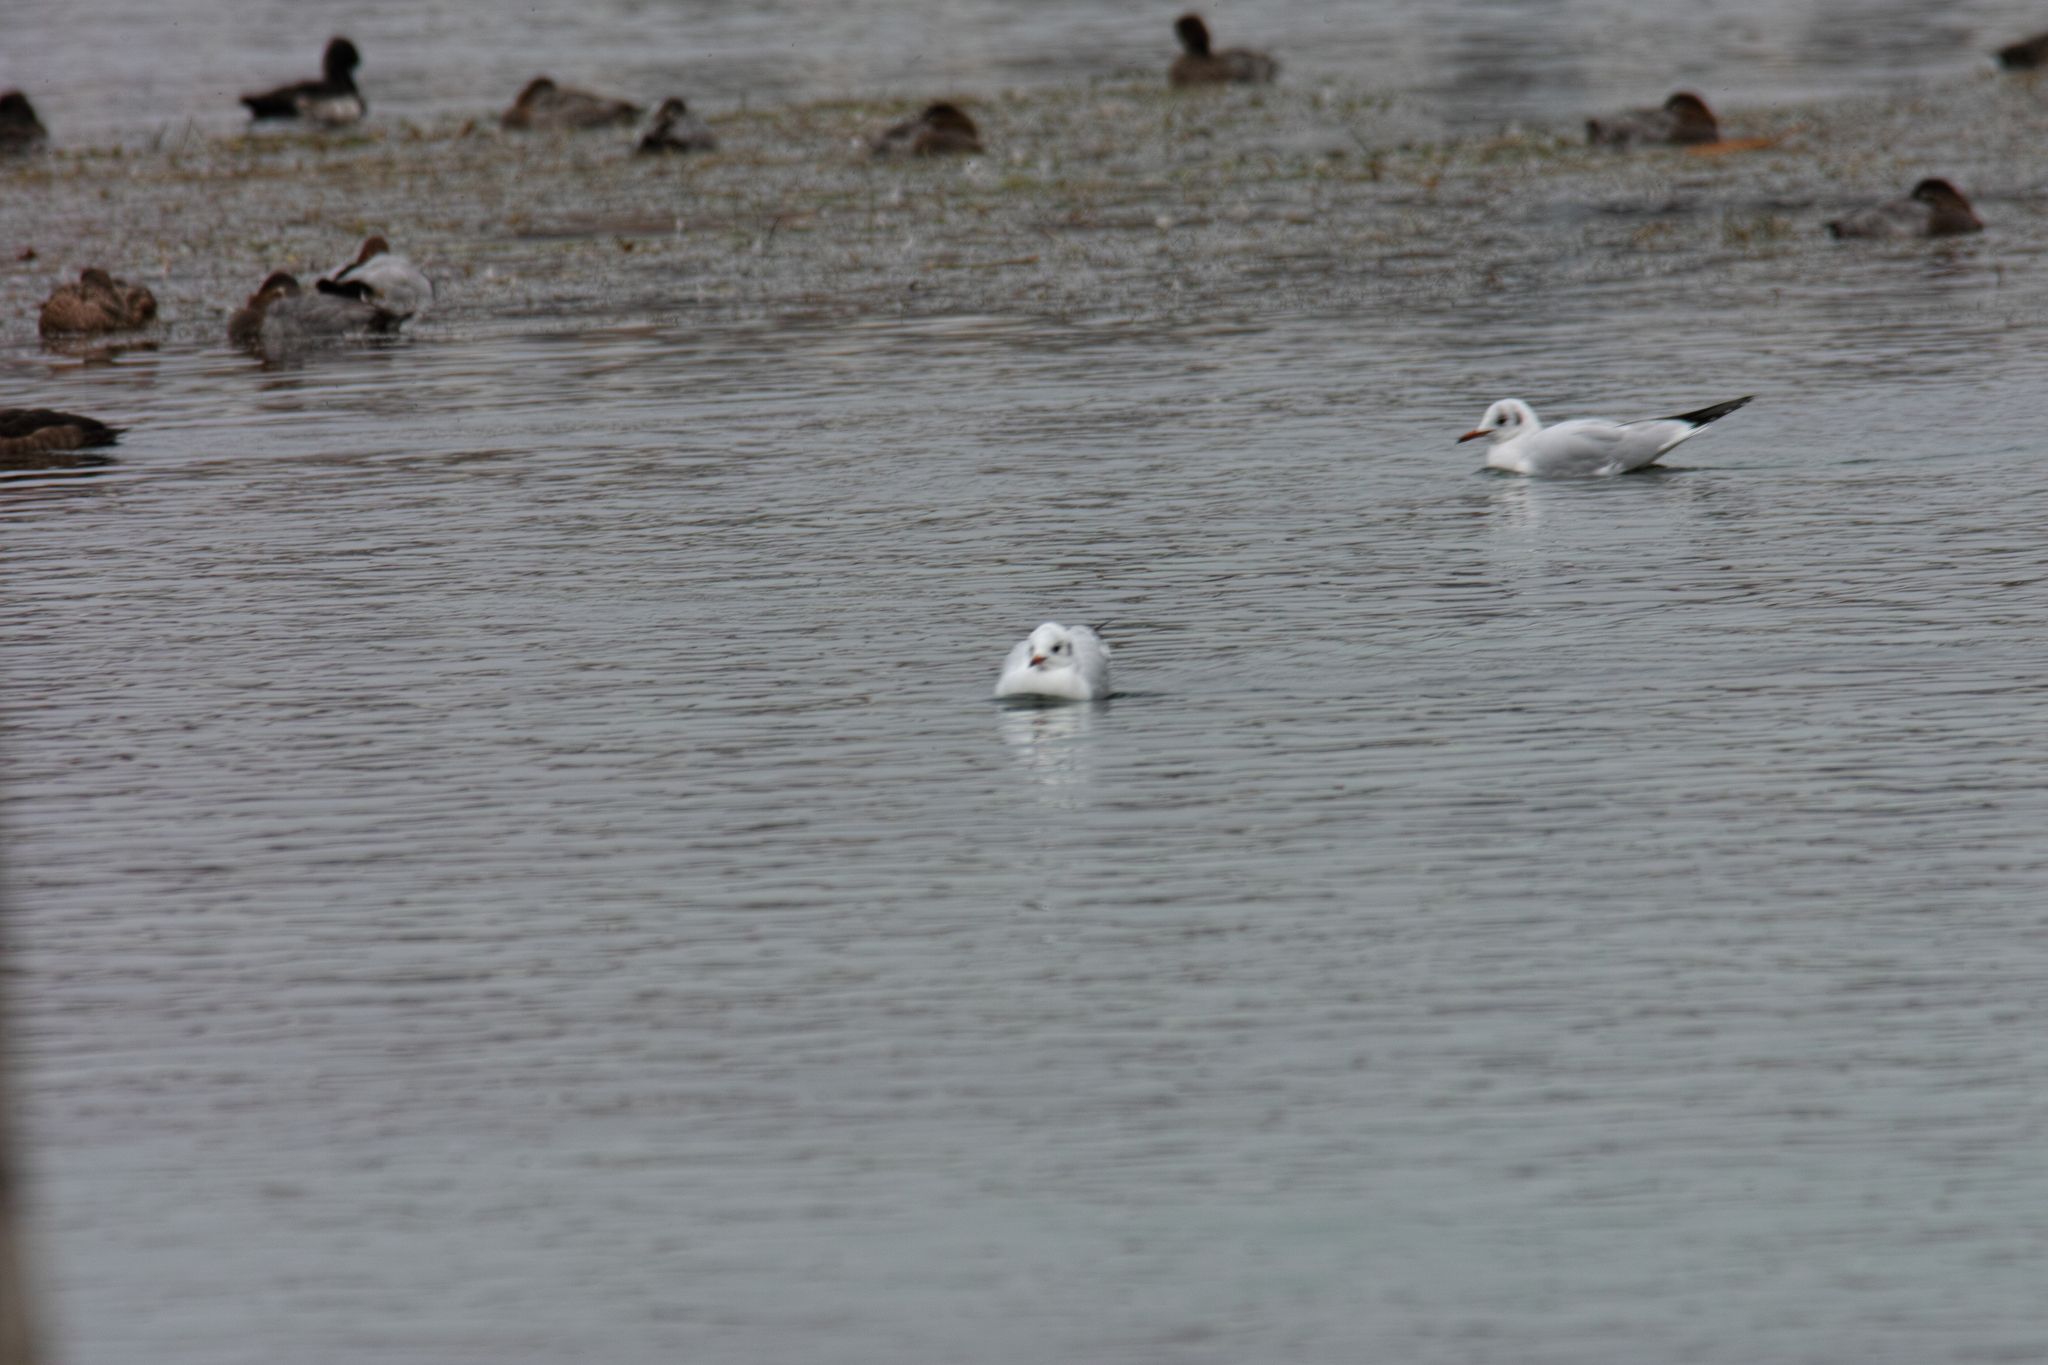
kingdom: Animalia
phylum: Chordata
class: Aves
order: Charadriiformes
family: Laridae
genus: Chroicocephalus
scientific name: Chroicocephalus ridibundus
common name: Black-headed gull
